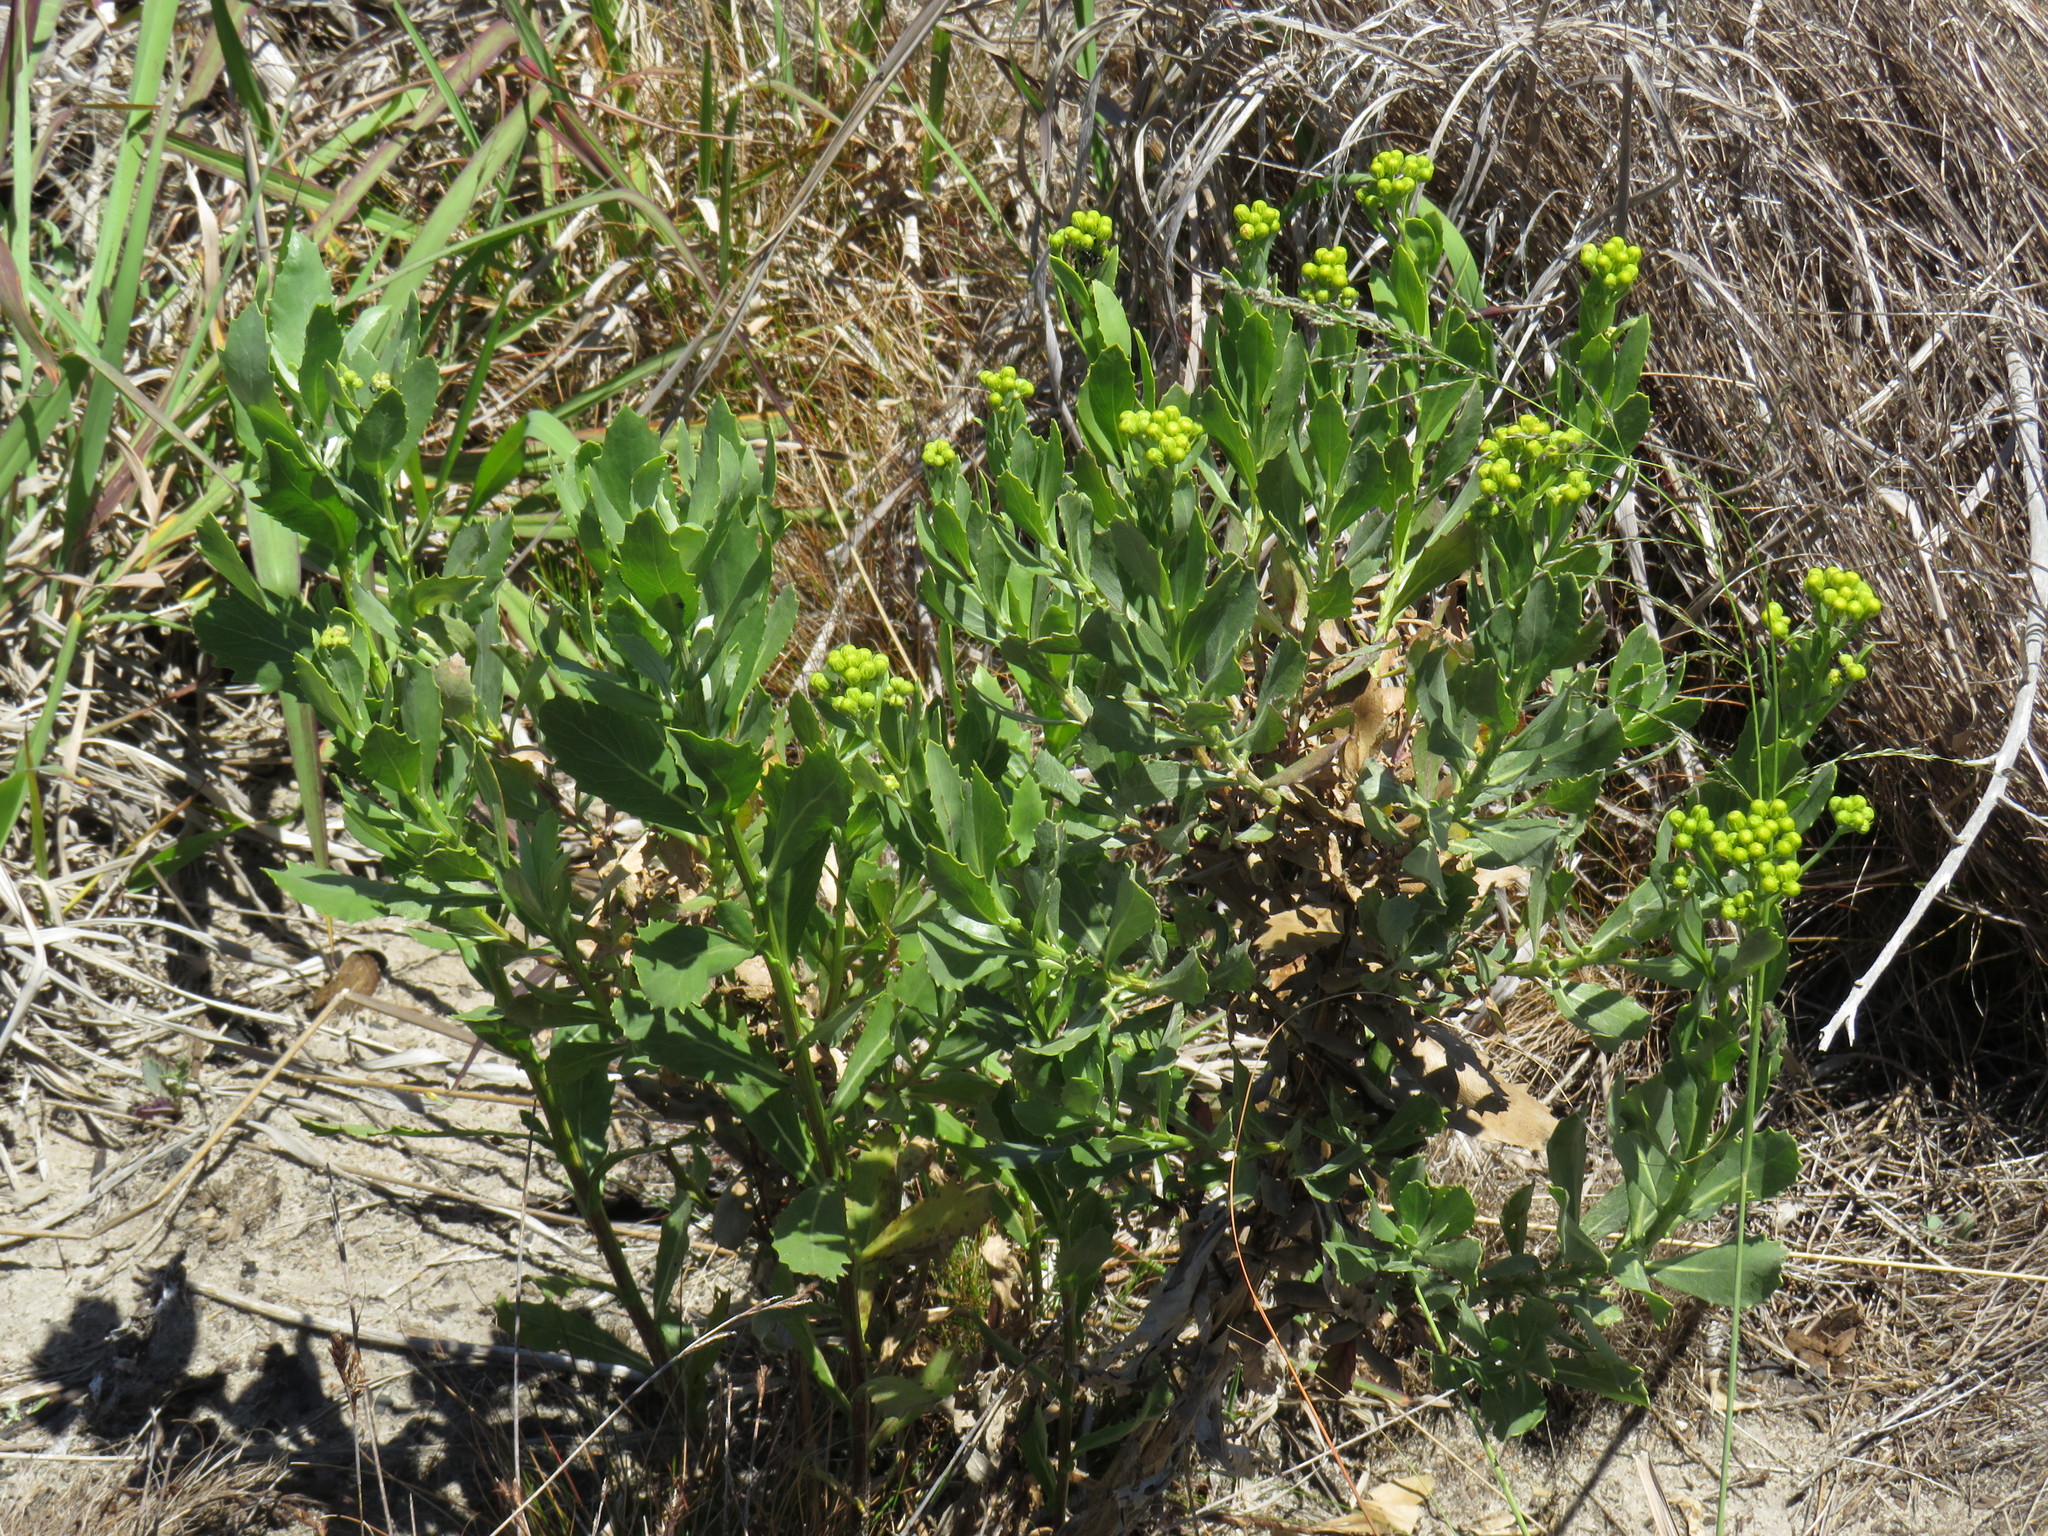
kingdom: Plantae
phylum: Tracheophyta
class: Magnoliopsida
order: Asterales
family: Asteraceae
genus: Senecio
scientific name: Senecio halimifolius
